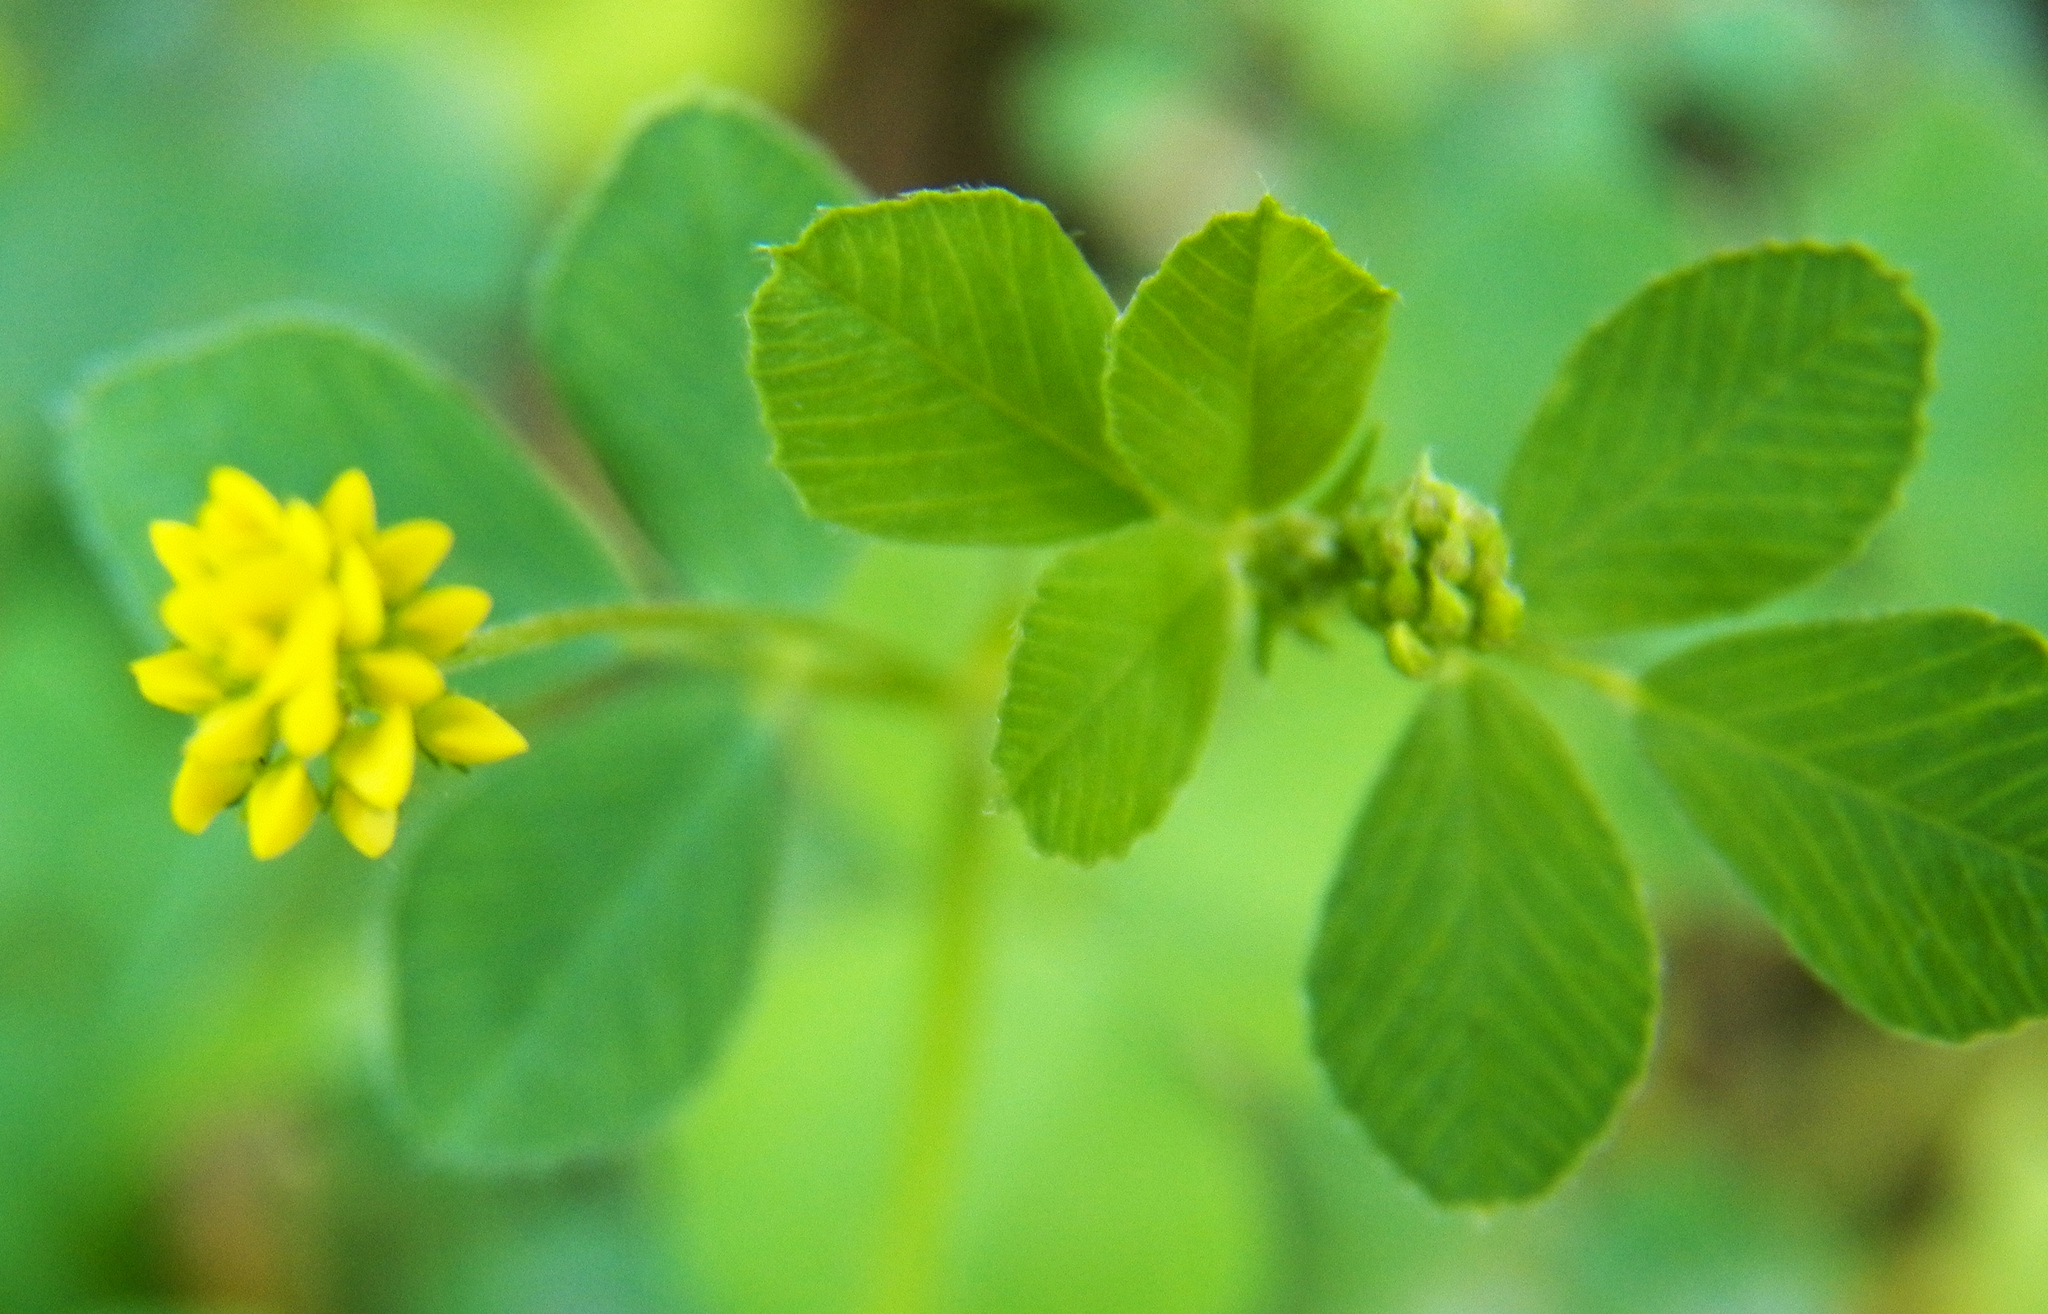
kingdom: Plantae
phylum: Tracheophyta
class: Magnoliopsida
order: Fabales
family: Fabaceae
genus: Medicago
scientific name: Medicago lupulina
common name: Black medick
